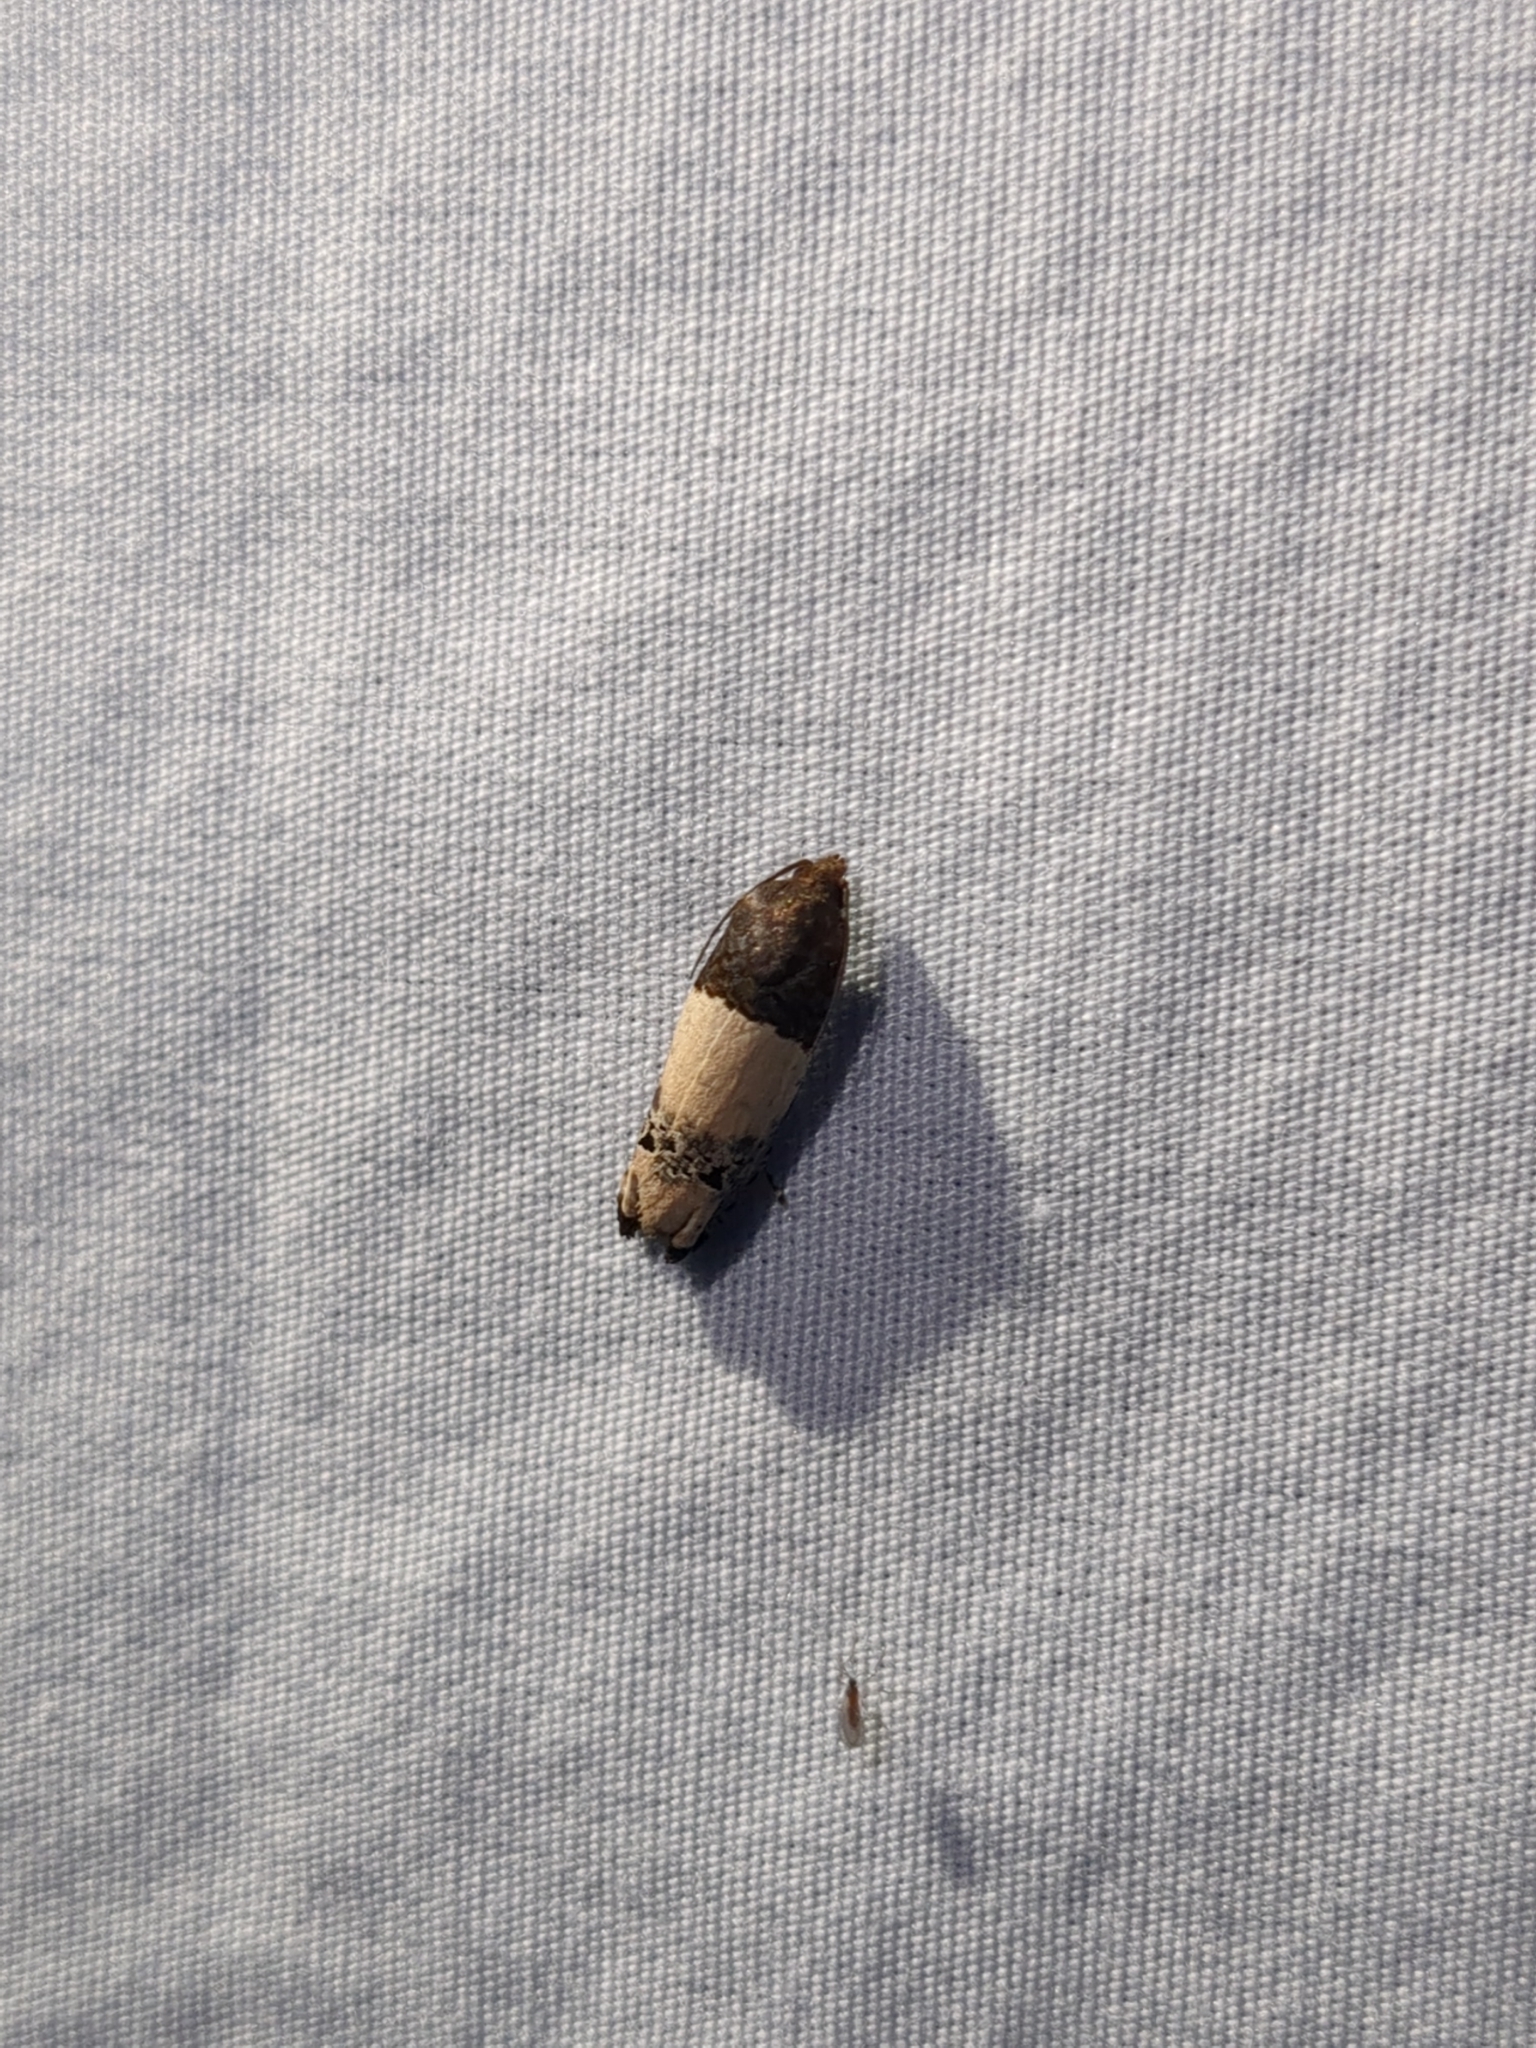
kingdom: Animalia
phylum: Arthropoda
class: Insecta
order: Lepidoptera
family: Tortricidae
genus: Epiblema
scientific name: Epiblema scudderiana
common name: Goldenrod gall moth
